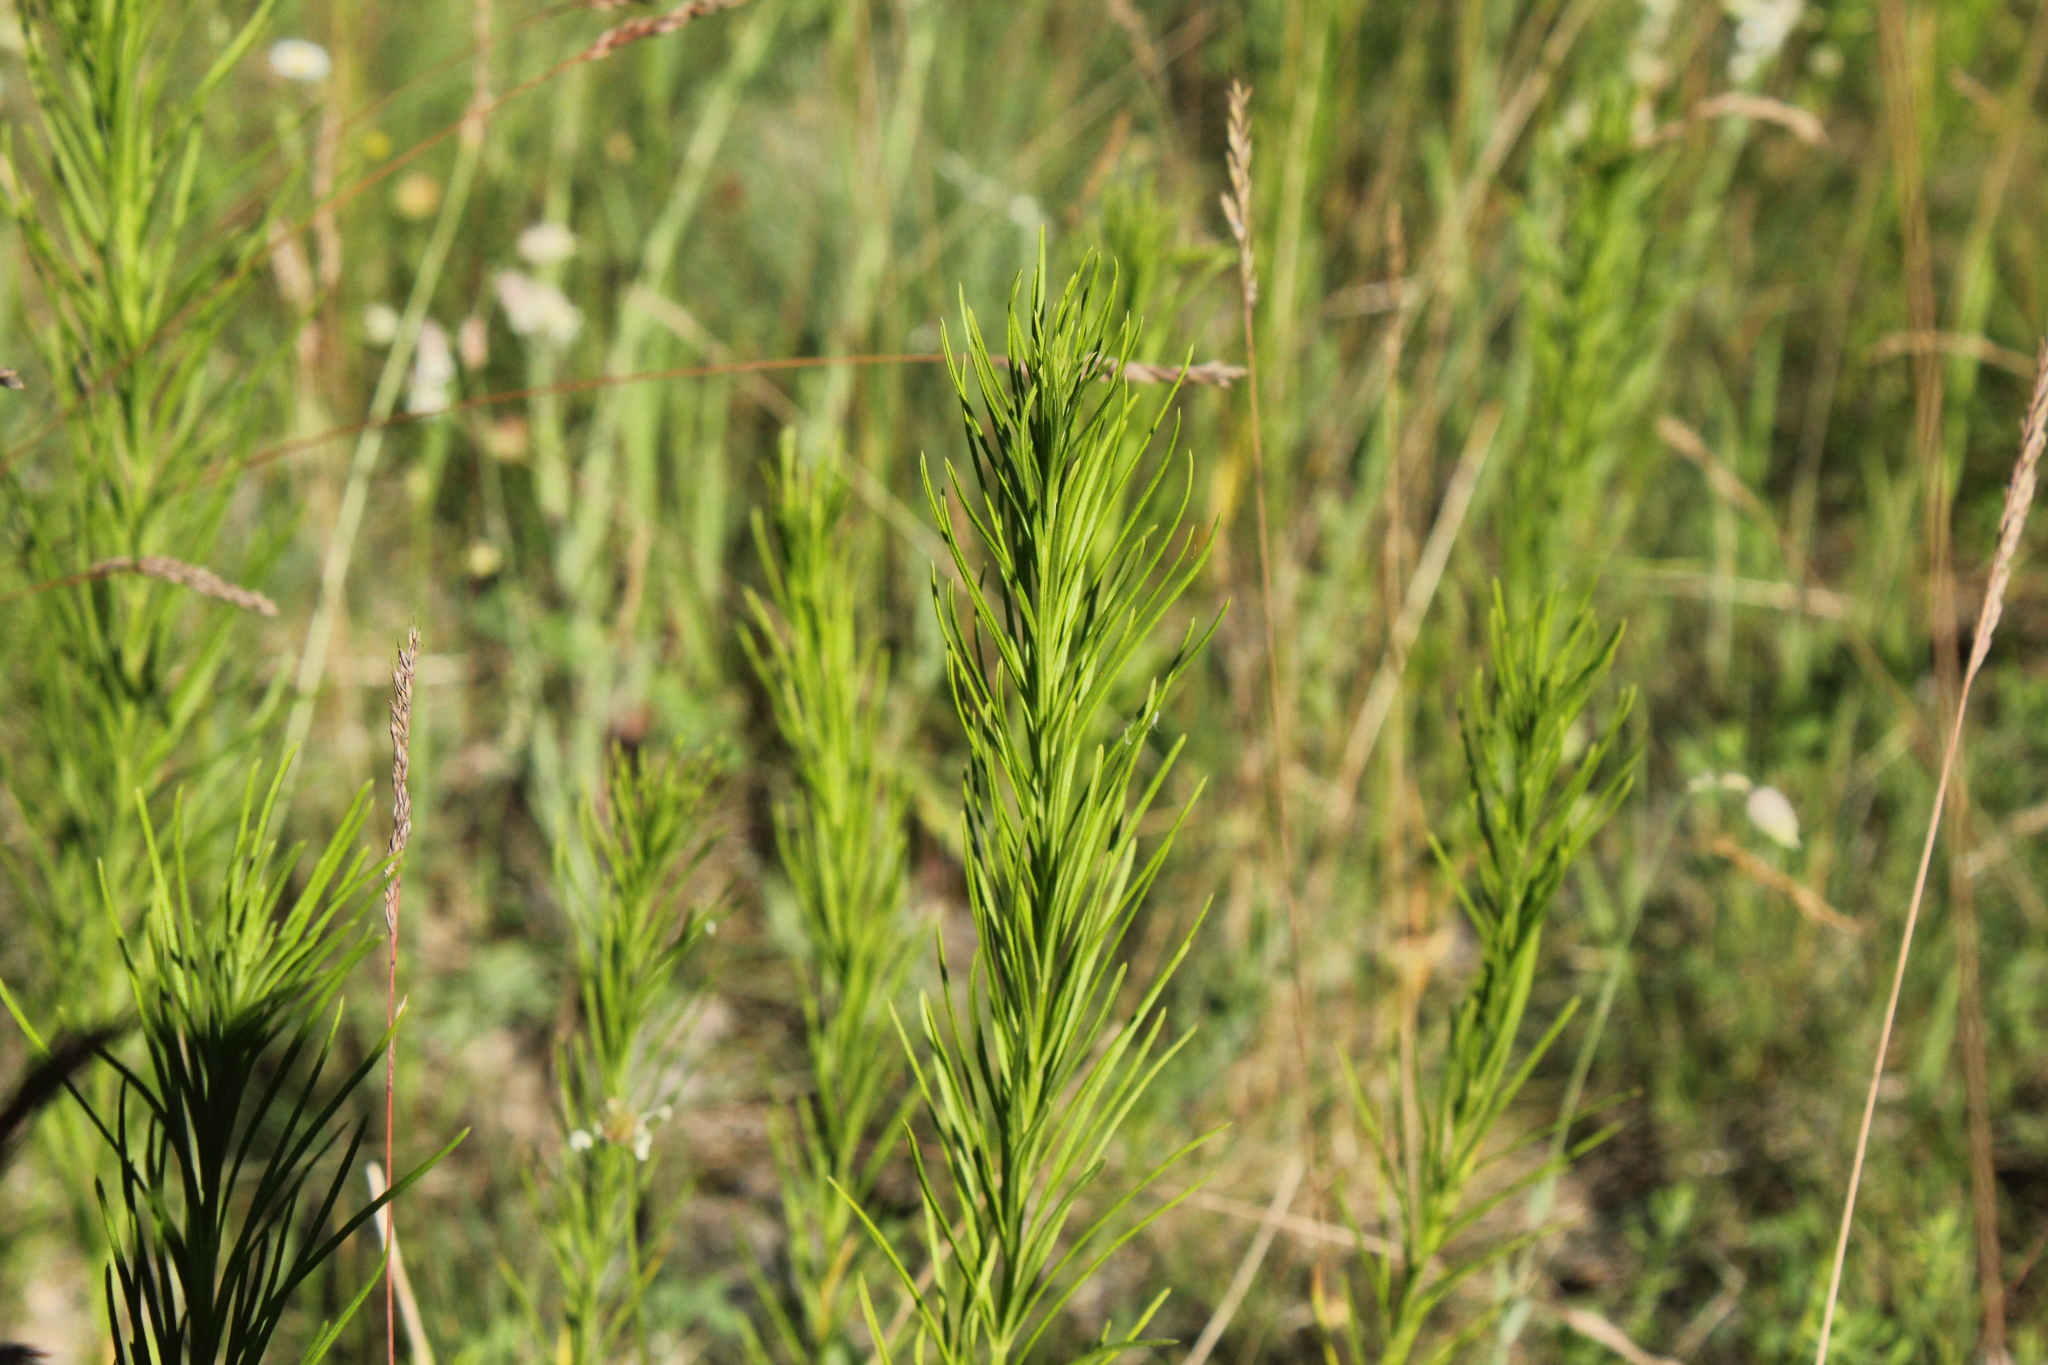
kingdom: Plantae
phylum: Tracheophyta
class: Magnoliopsida
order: Gentianales
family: Apocynaceae
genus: Asclepias
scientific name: Asclepias verticillata
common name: Eastern whorled milkweed
